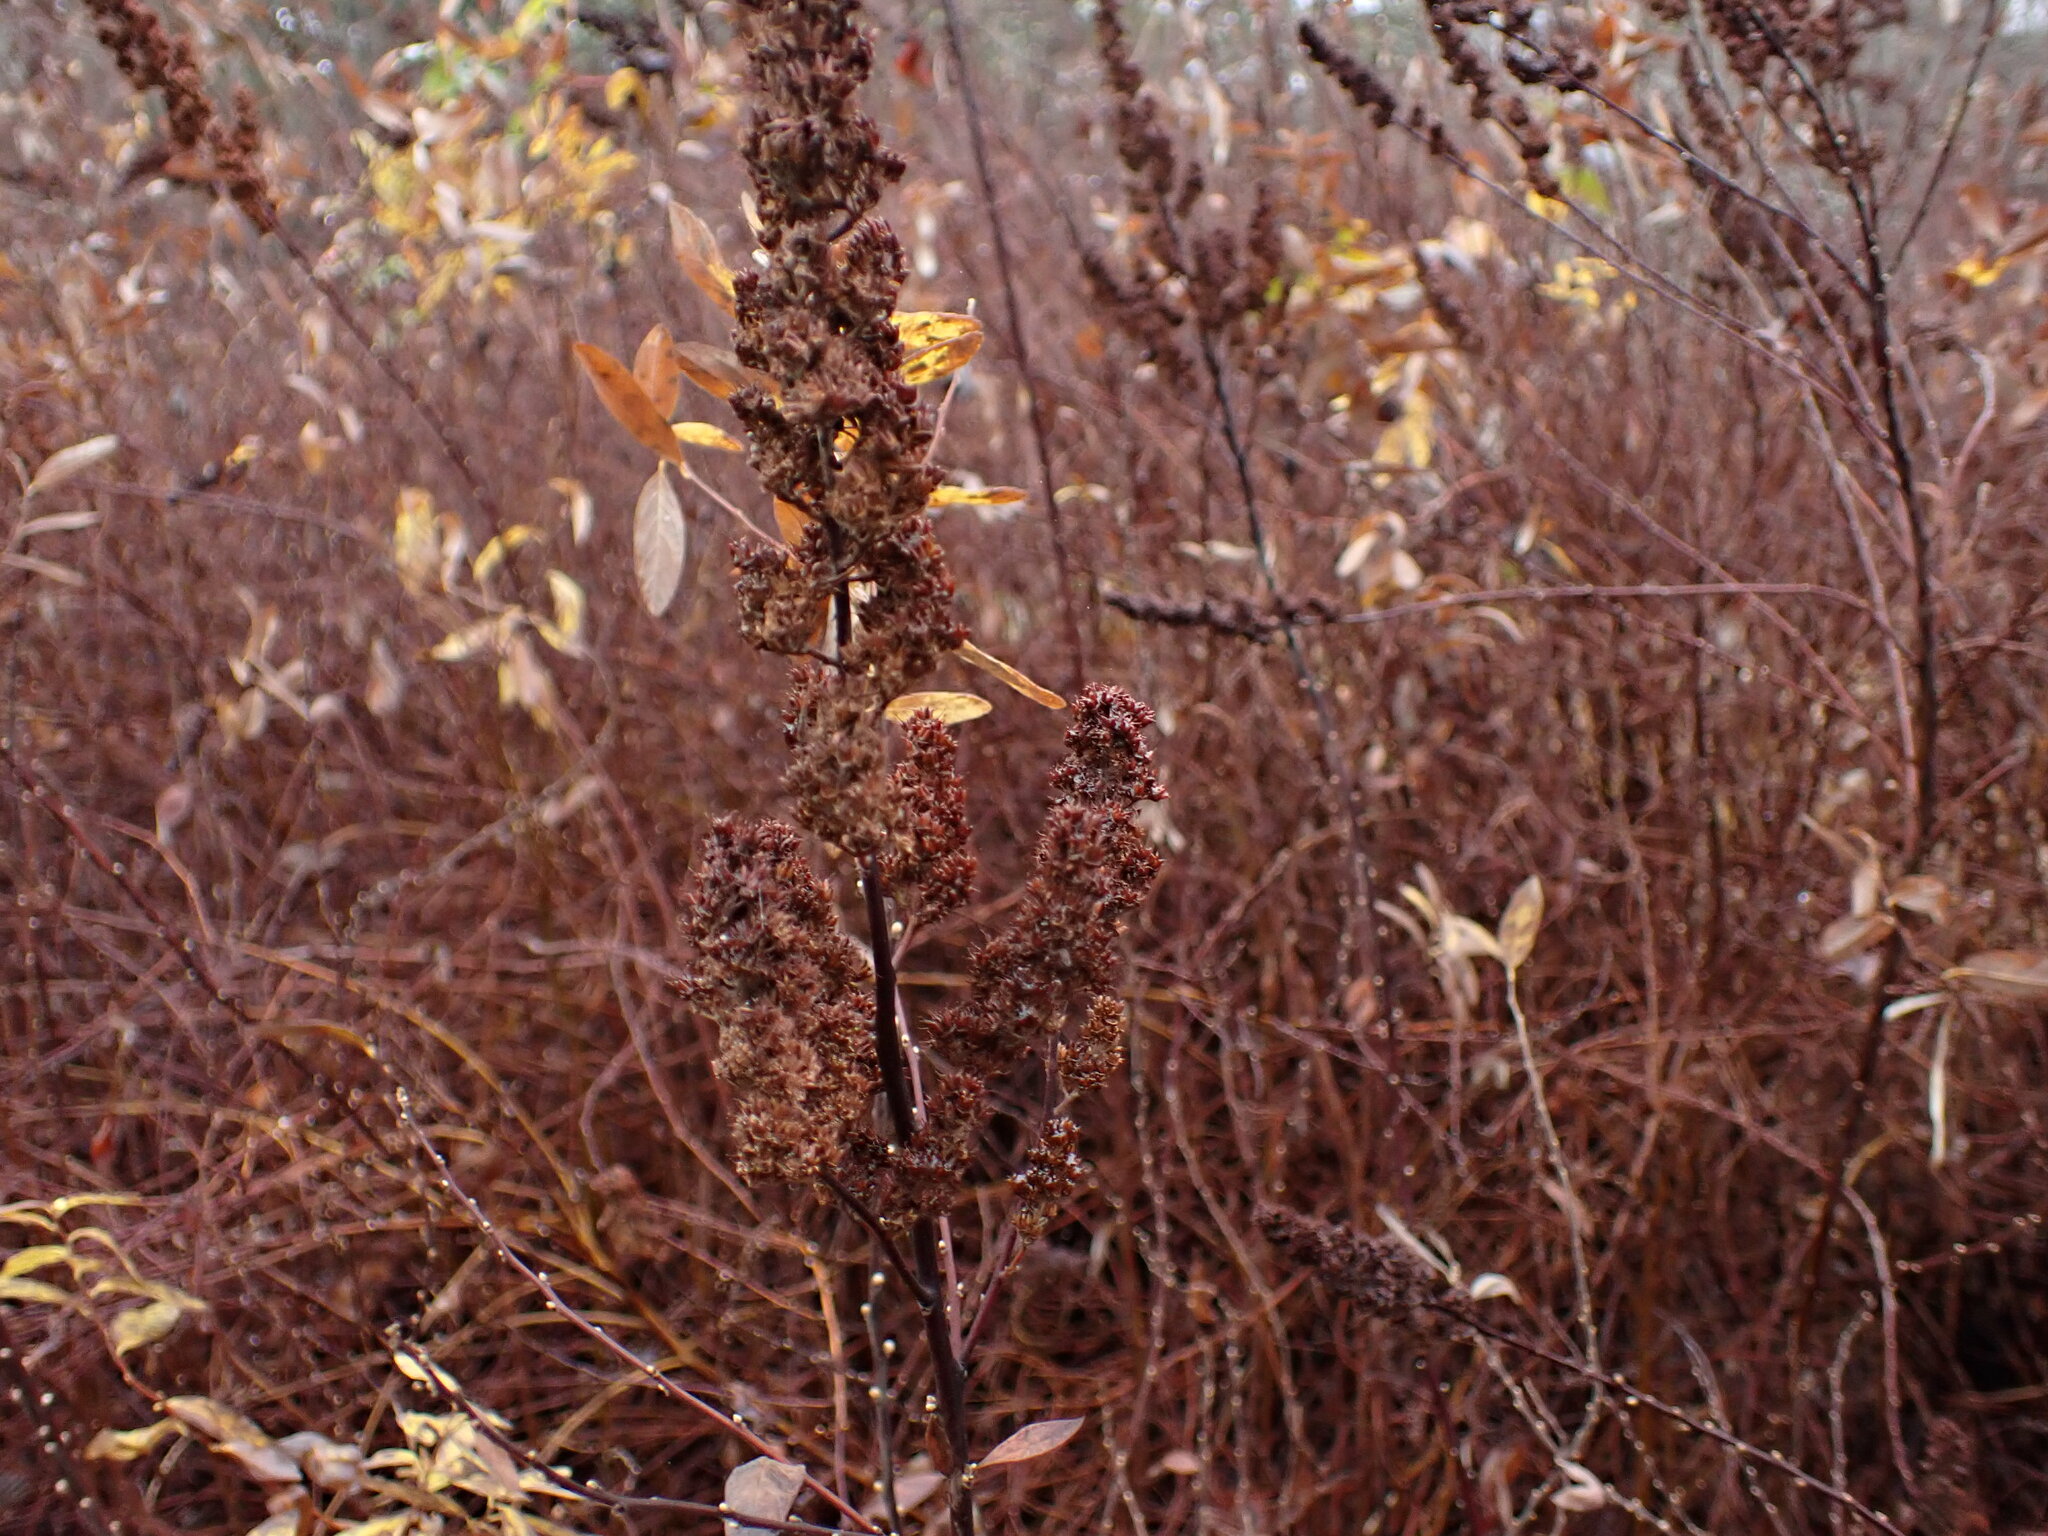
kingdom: Plantae
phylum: Tracheophyta
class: Magnoliopsida
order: Rosales
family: Rosaceae
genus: Spiraea
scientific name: Spiraea douglasii
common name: Steeplebush
